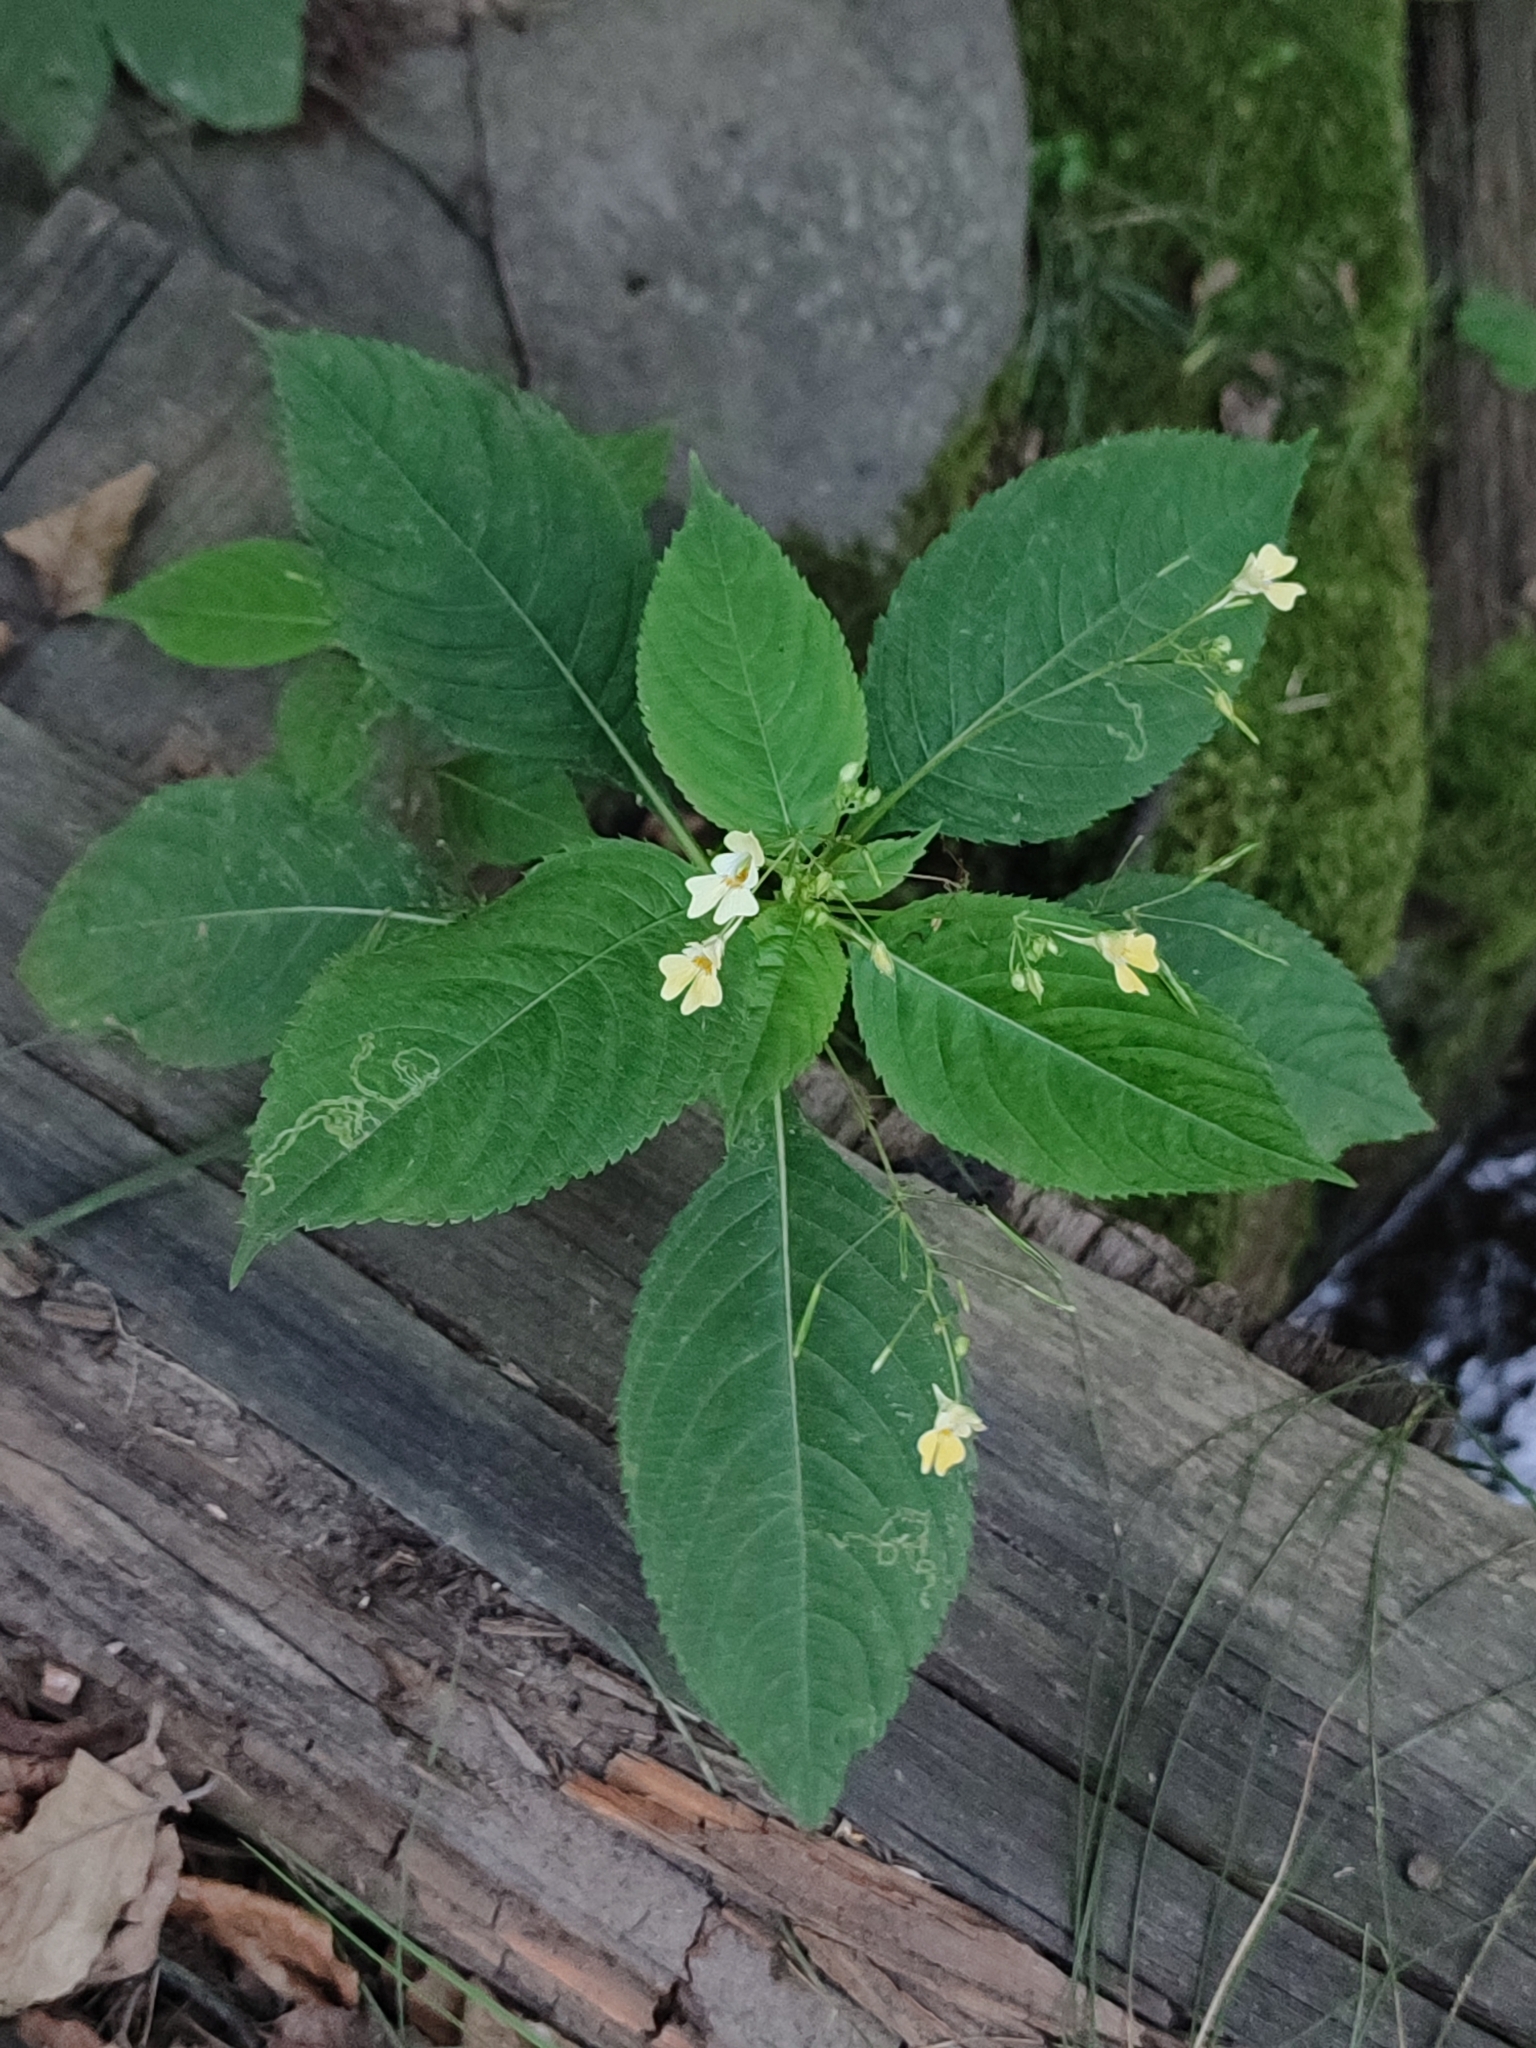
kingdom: Plantae
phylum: Tracheophyta
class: Magnoliopsida
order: Ericales
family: Balsaminaceae
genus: Impatiens
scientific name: Impatiens parviflora
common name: Small balsam
